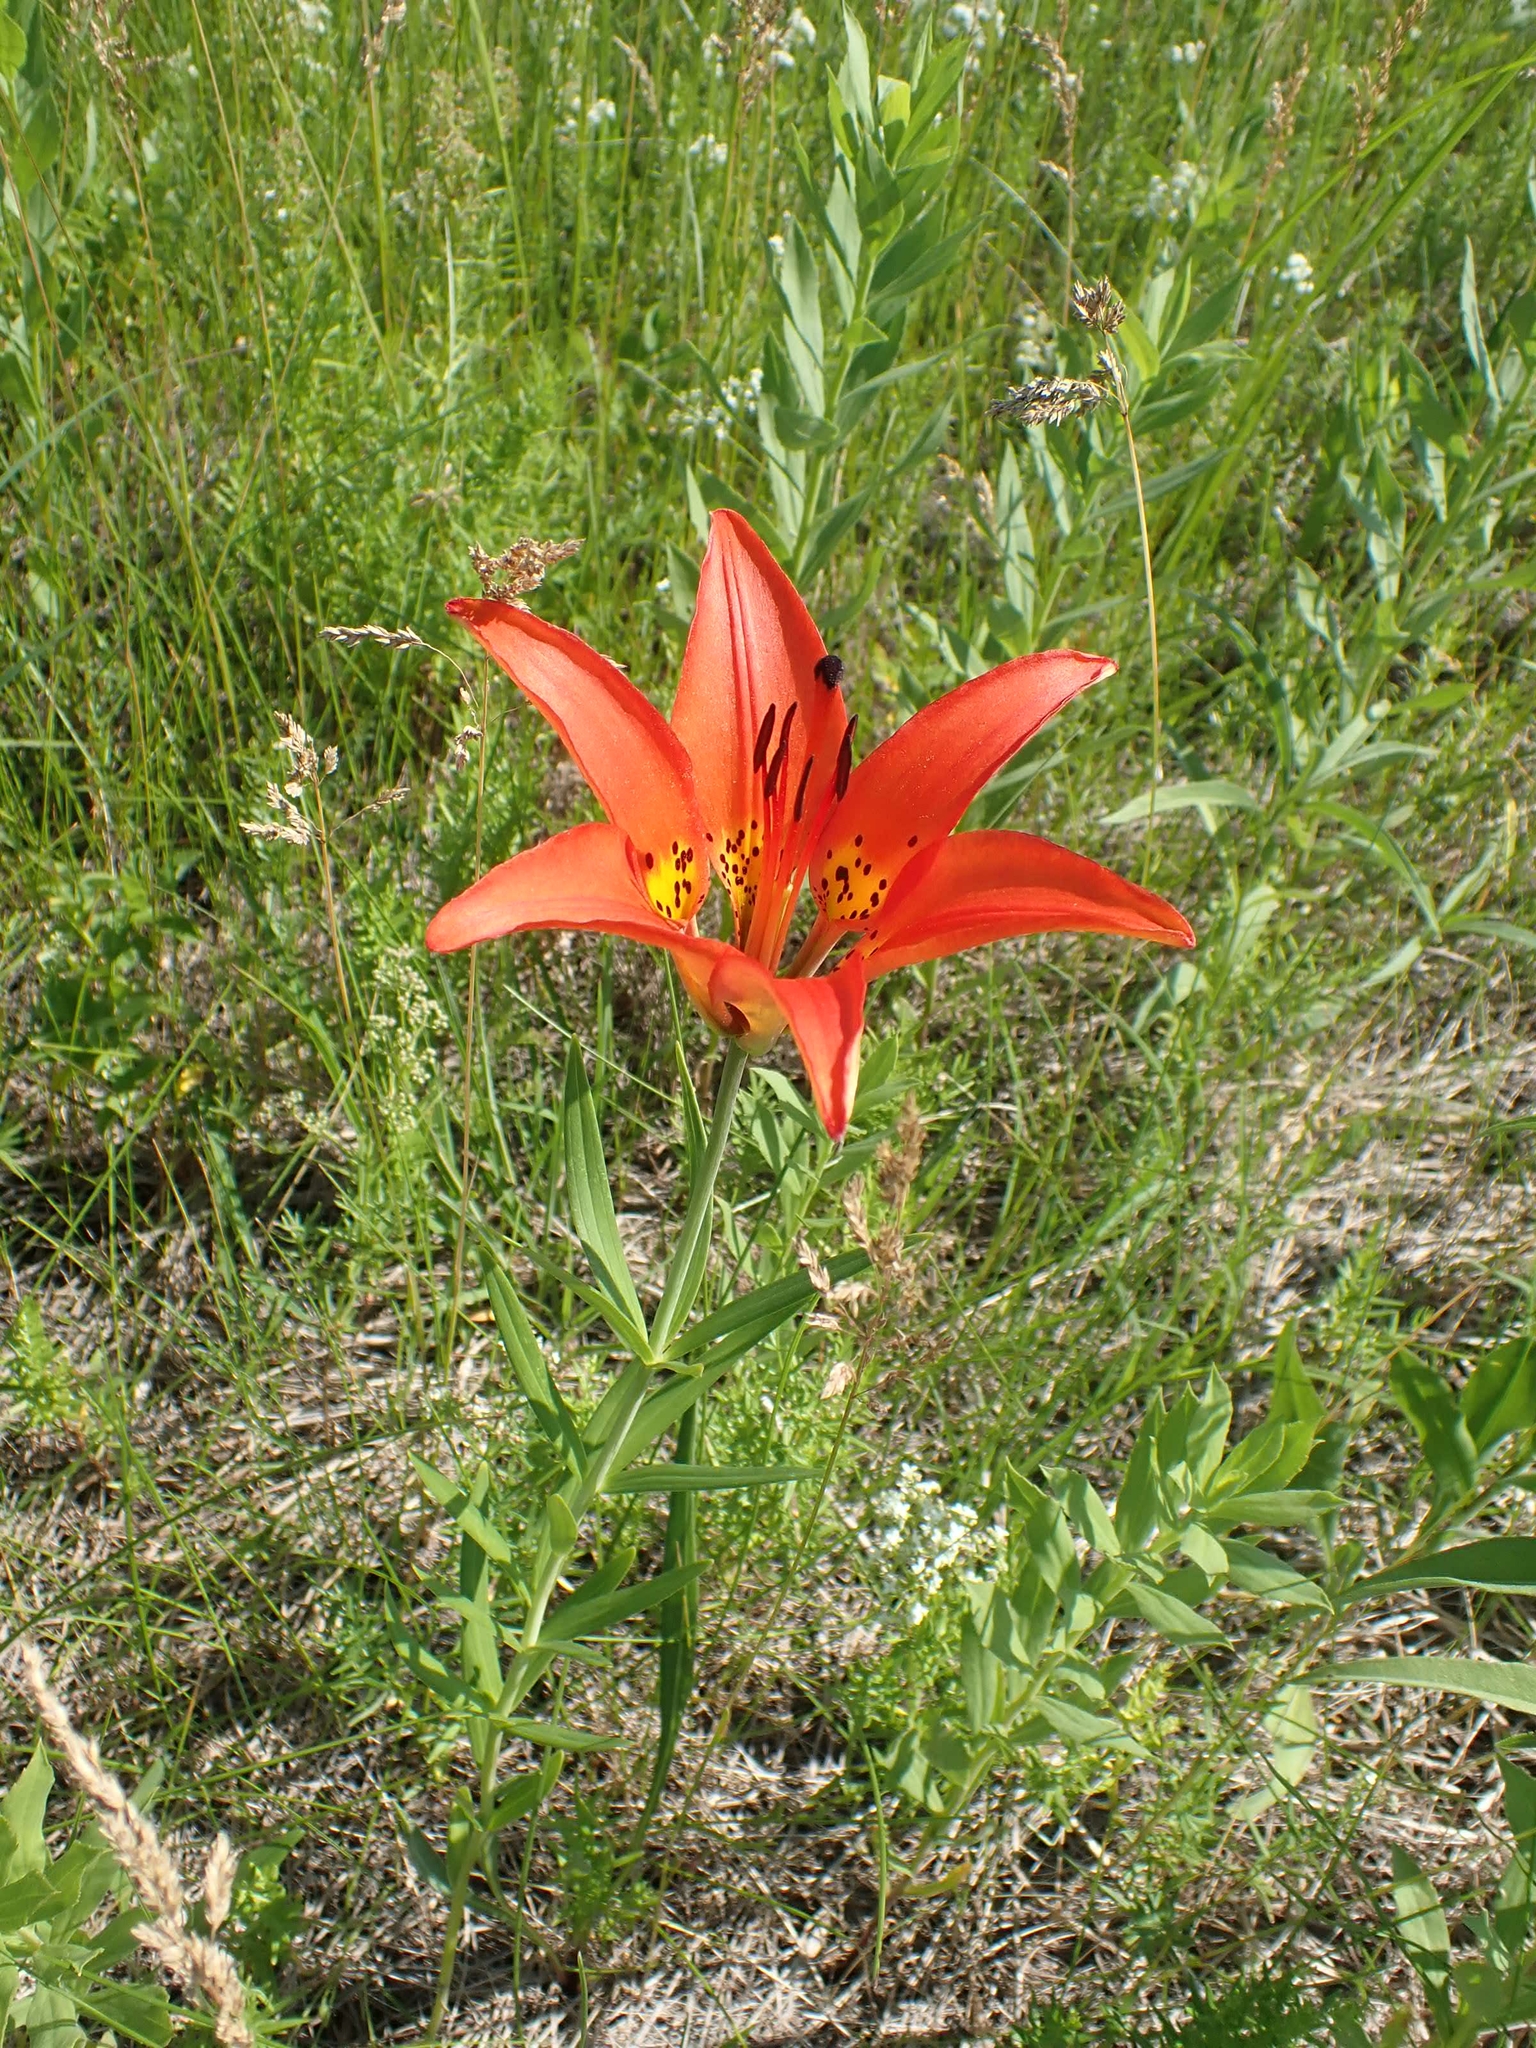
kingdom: Plantae
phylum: Tracheophyta
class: Liliopsida
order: Liliales
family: Liliaceae
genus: Lilium
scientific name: Lilium philadelphicum
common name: Red lily
